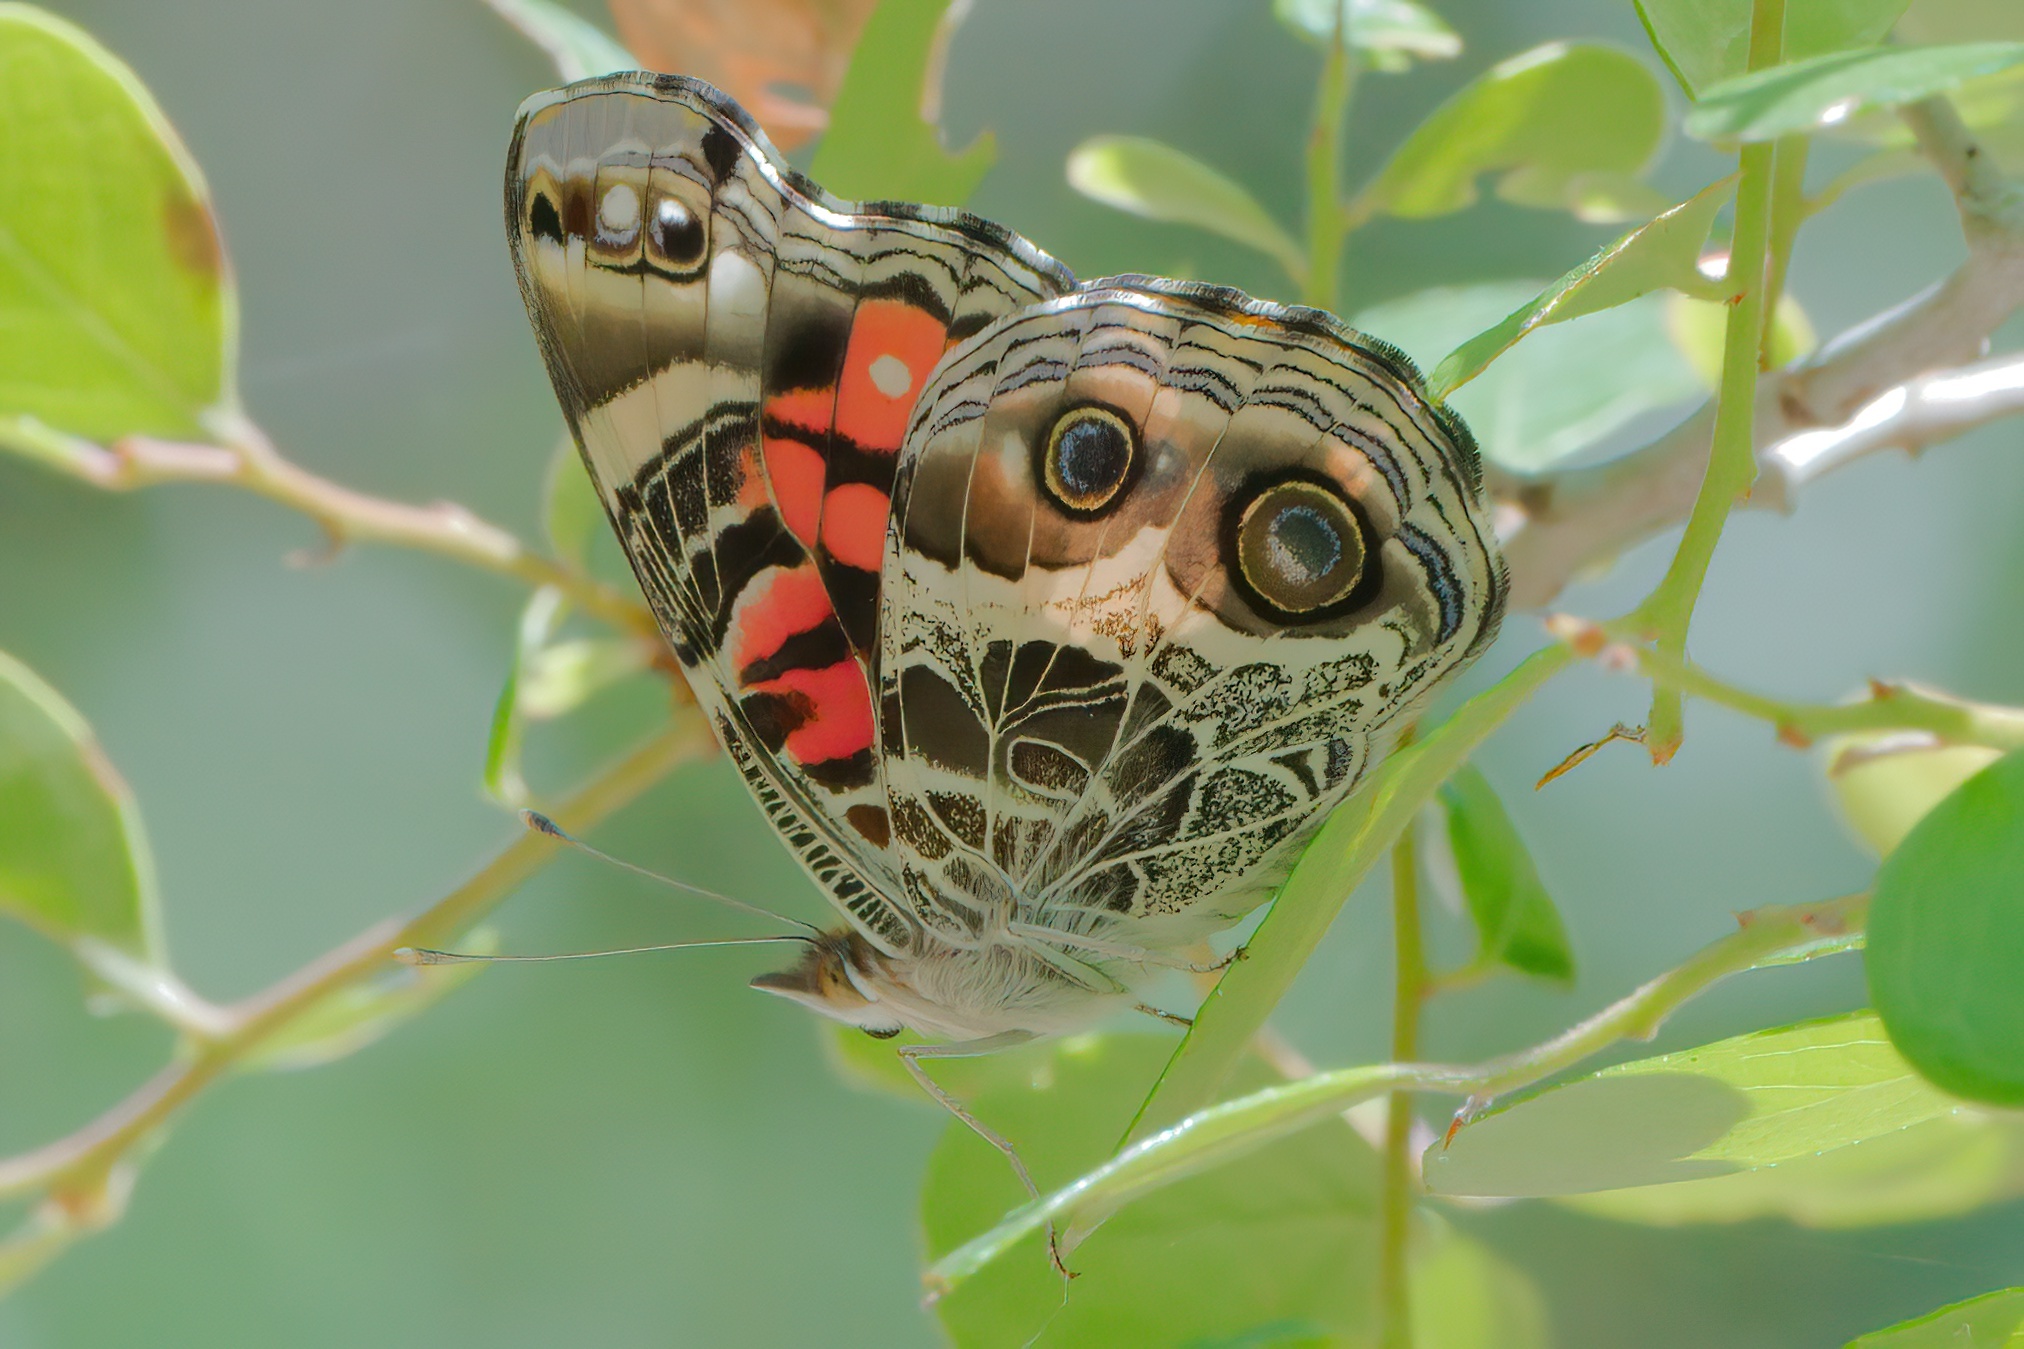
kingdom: Animalia
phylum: Arthropoda
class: Insecta
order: Lepidoptera
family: Nymphalidae
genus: Vanessa
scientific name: Vanessa virginiensis
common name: American lady
